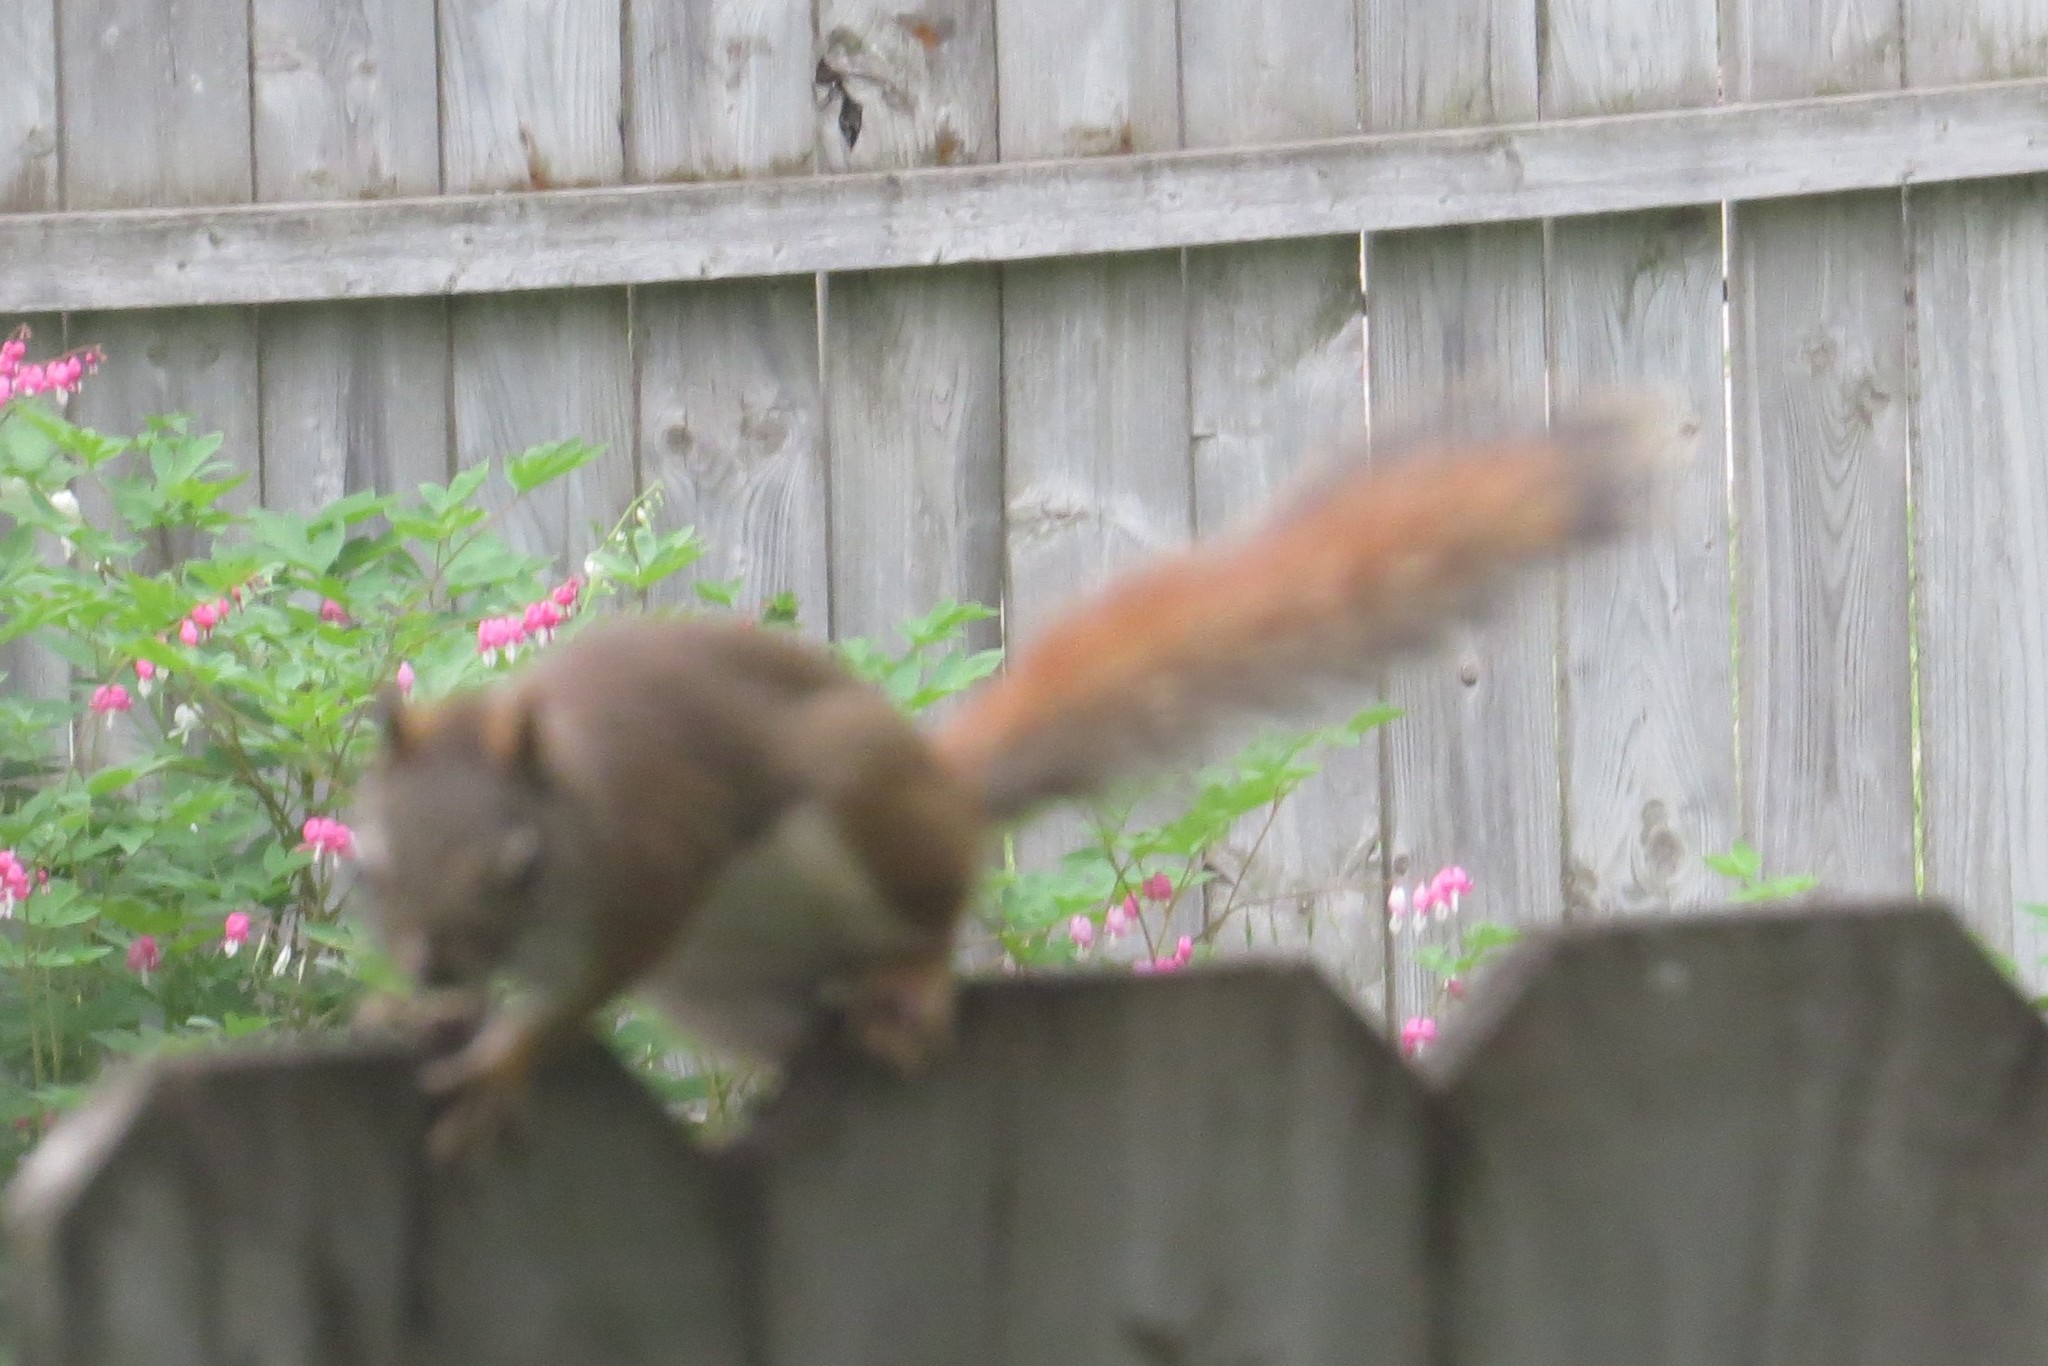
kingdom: Animalia
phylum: Chordata
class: Mammalia
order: Rodentia
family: Sciuridae
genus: Tamiasciurus
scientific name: Tamiasciurus hudsonicus
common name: Red squirrel
